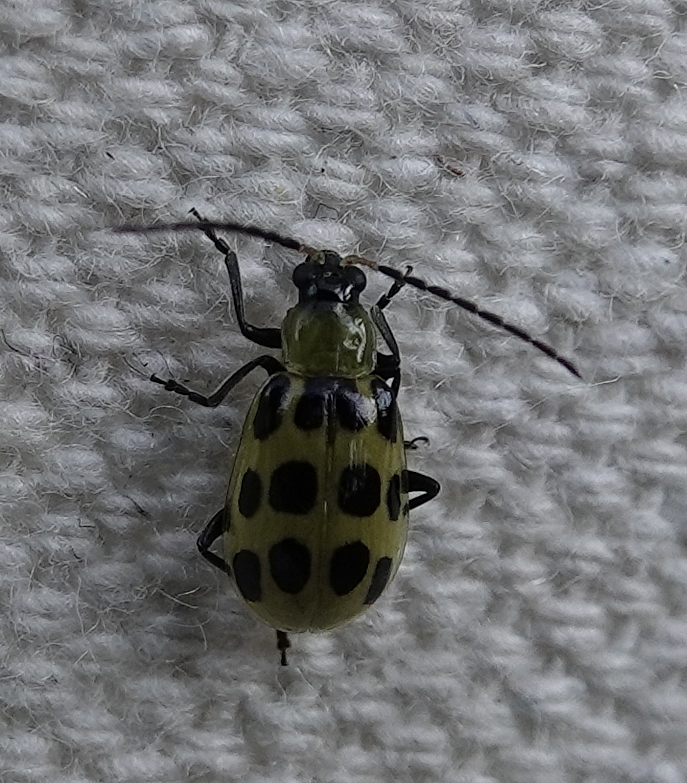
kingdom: Animalia
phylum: Arthropoda
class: Insecta
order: Coleoptera
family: Chrysomelidae
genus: Diabrotica
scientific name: Diabrotica undecimpunctata
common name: Spotted cucumber beetle
